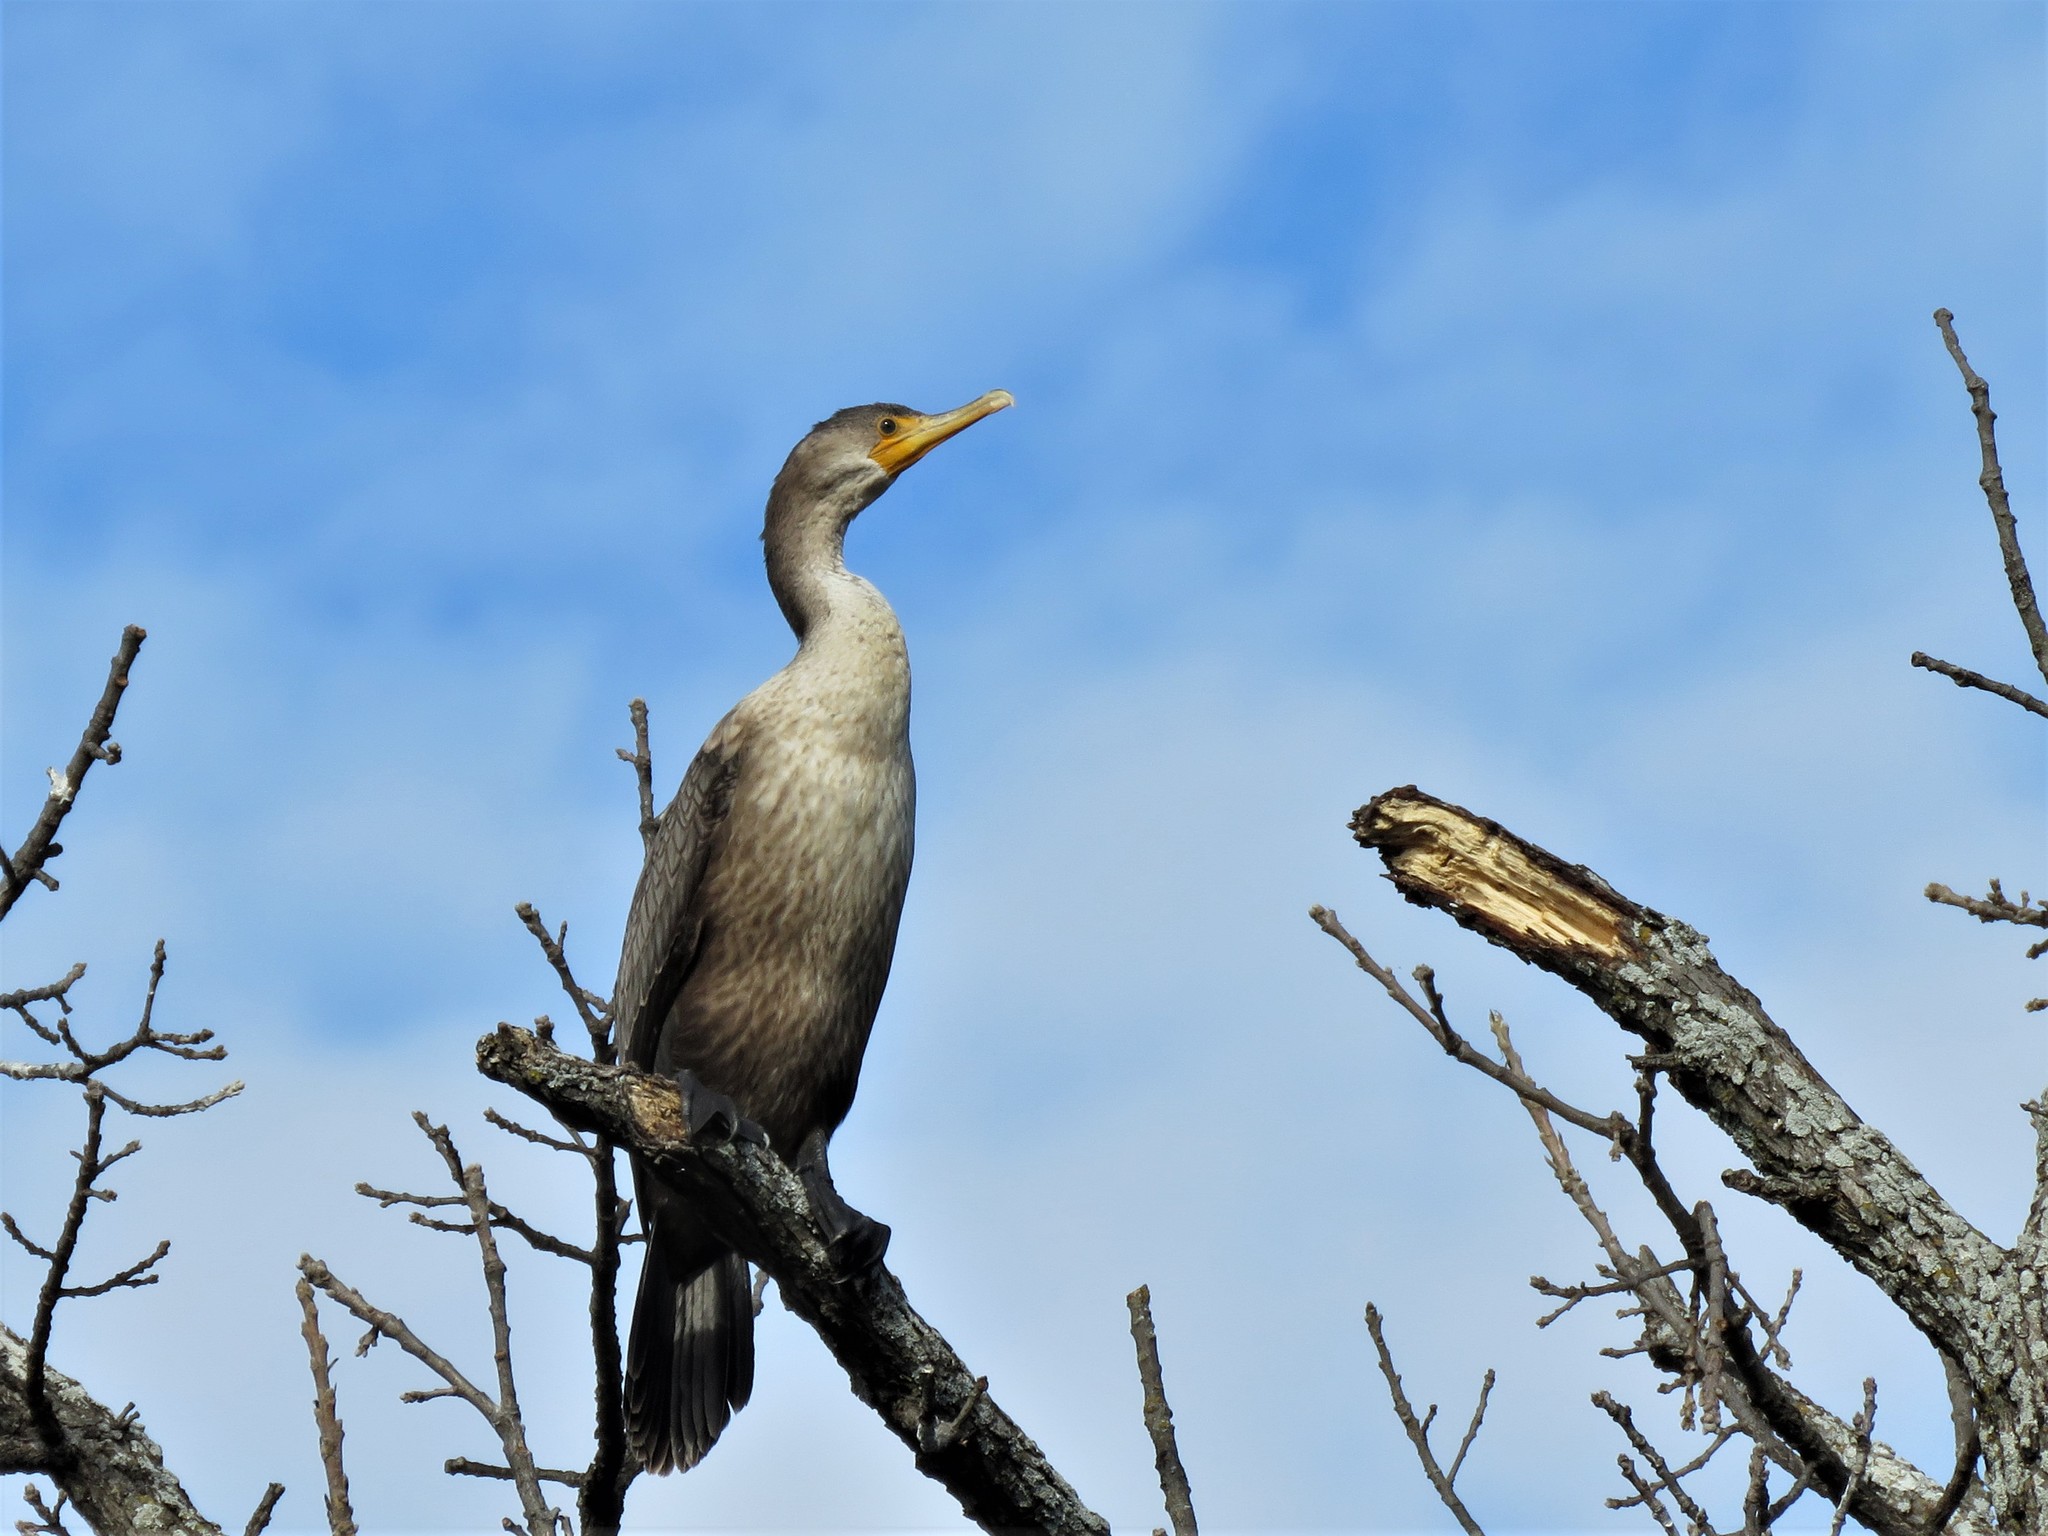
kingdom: Animalia
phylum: Chordata
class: Aves
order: Suliformes
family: Phalacrocoracidae
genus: Phalacrocorax
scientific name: Phalacrocorax auritus
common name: Double-crested cormorant
